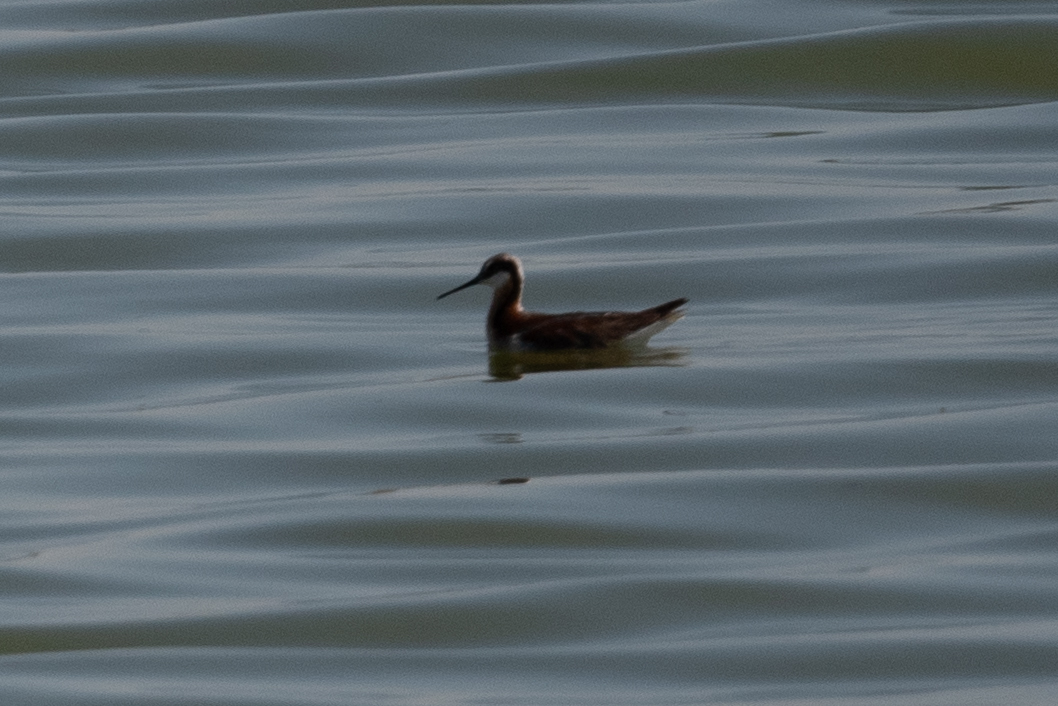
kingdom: Animalia
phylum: Chordata
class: Aves
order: Charadriiformes
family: Scolopacidae
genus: Phalaropus
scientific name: Phalaropus tricolor
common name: Wilson's phalarope
